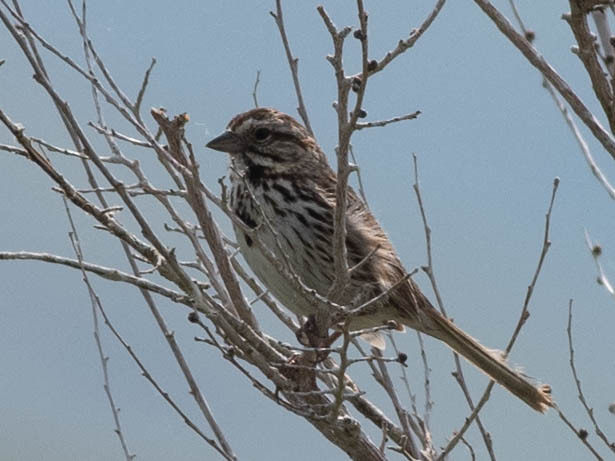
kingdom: Animalia
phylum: Chordata
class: Aves
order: Passeriformes
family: Passerellidae
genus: Melospiza
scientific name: Melospiza melodia
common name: Song sparrow
